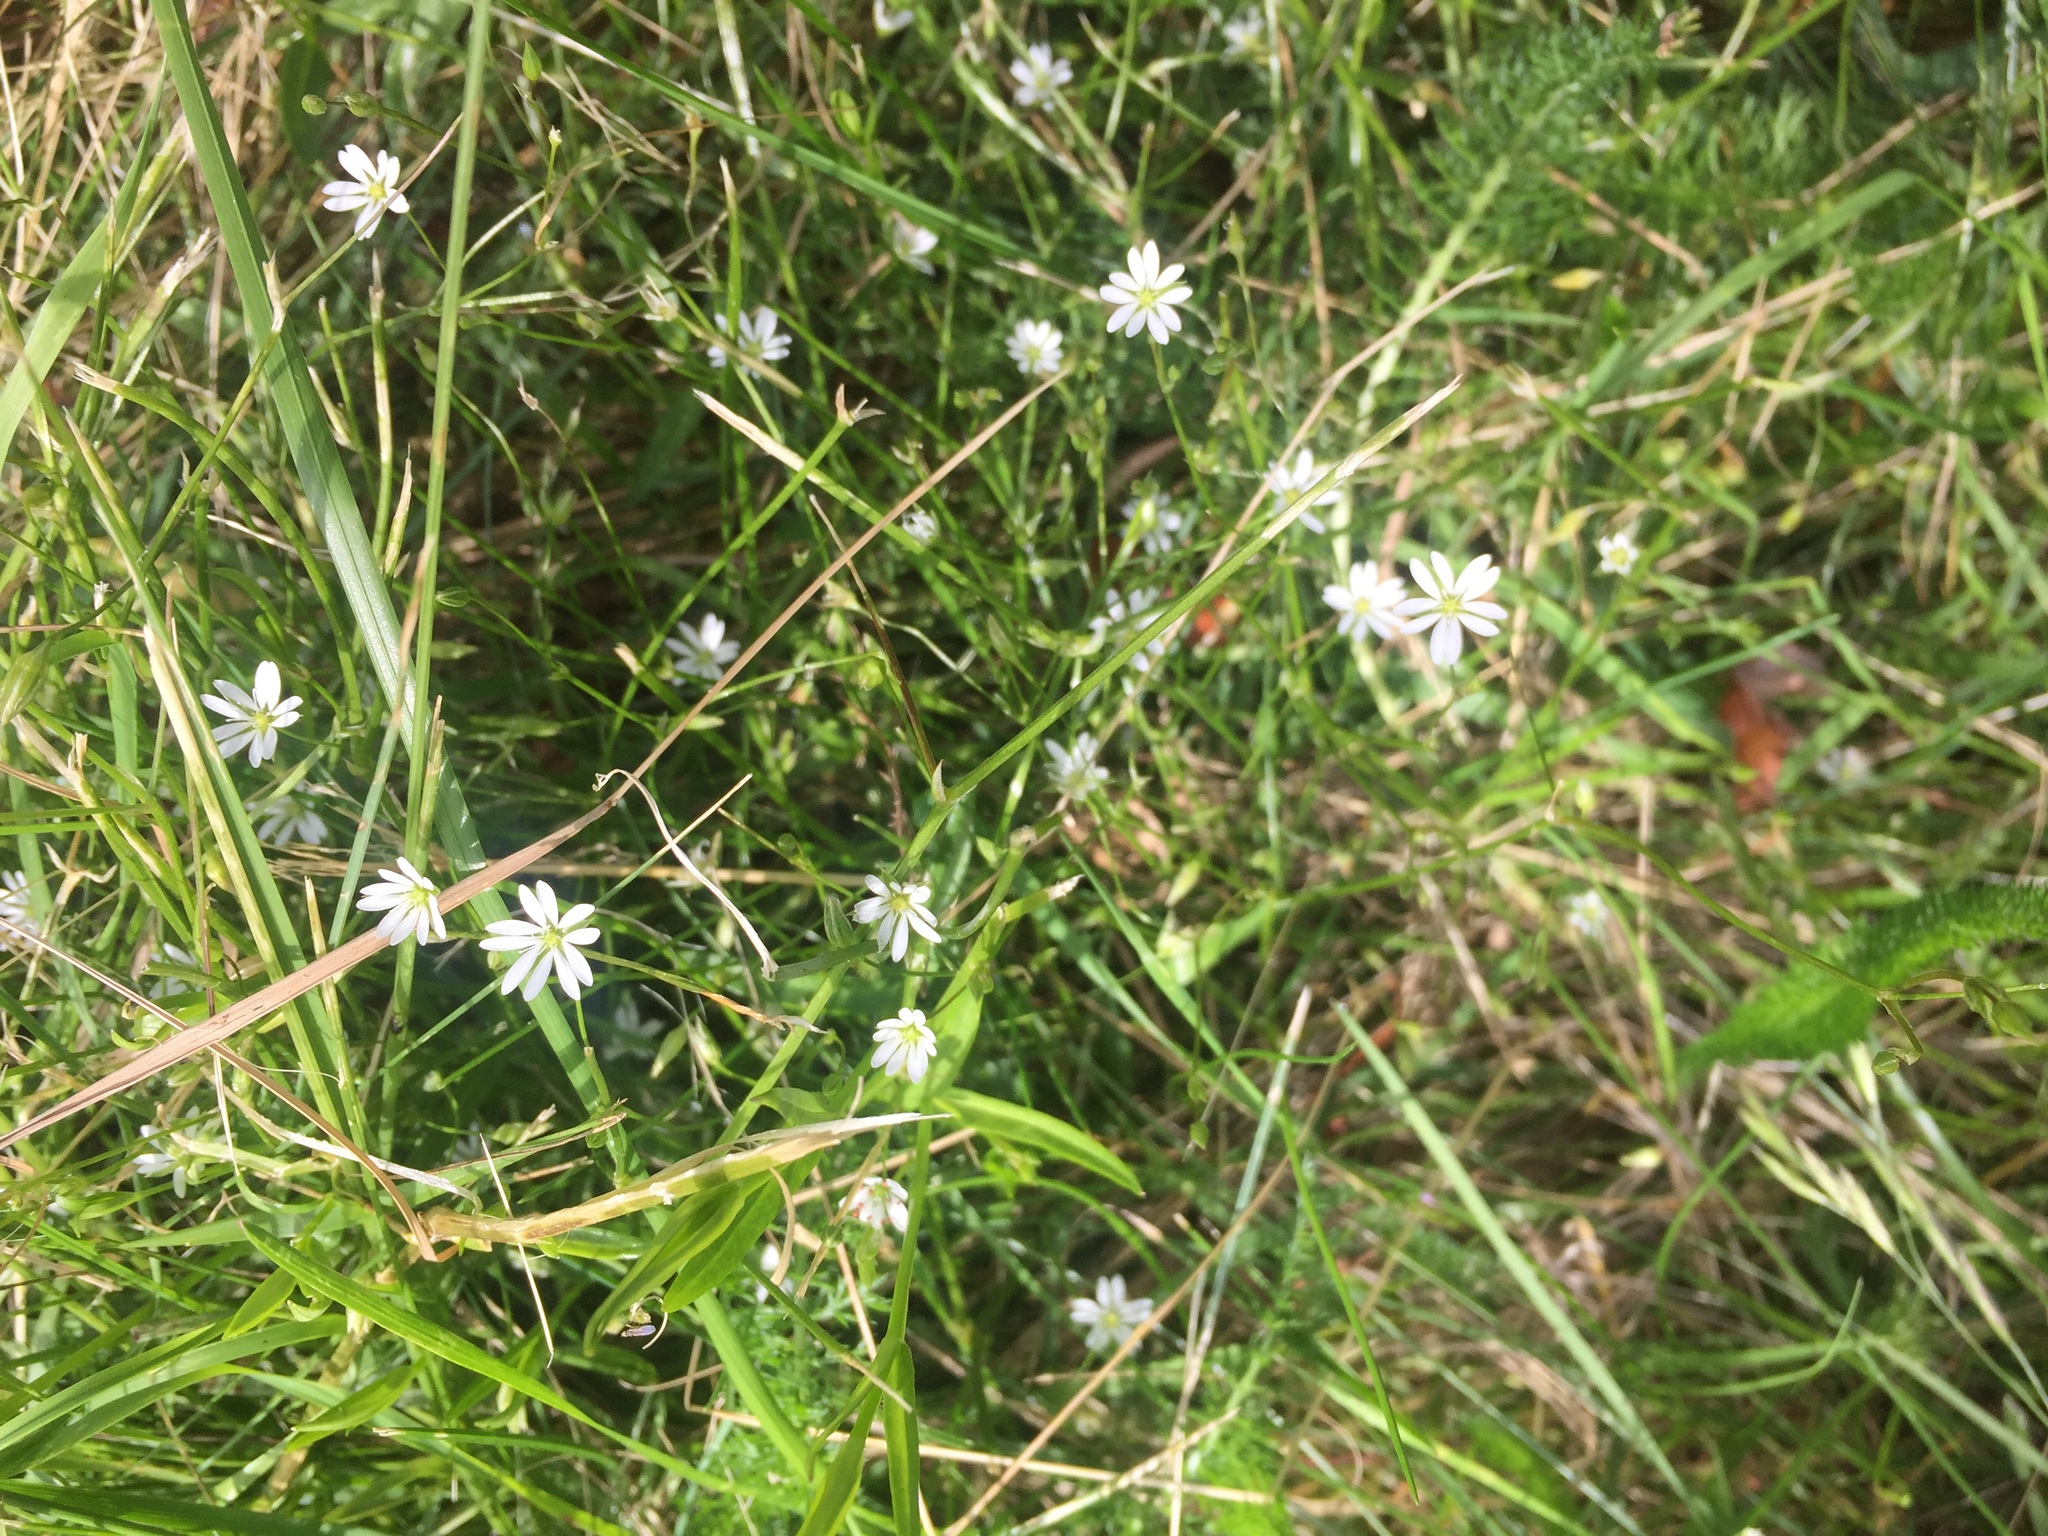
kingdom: Plantae
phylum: Tracheophyta
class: Magnoliopsida
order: Caryophyllales
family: Caryophyllaceae
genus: Stellaria
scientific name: Stellaria graminea
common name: Grass-like starwort
